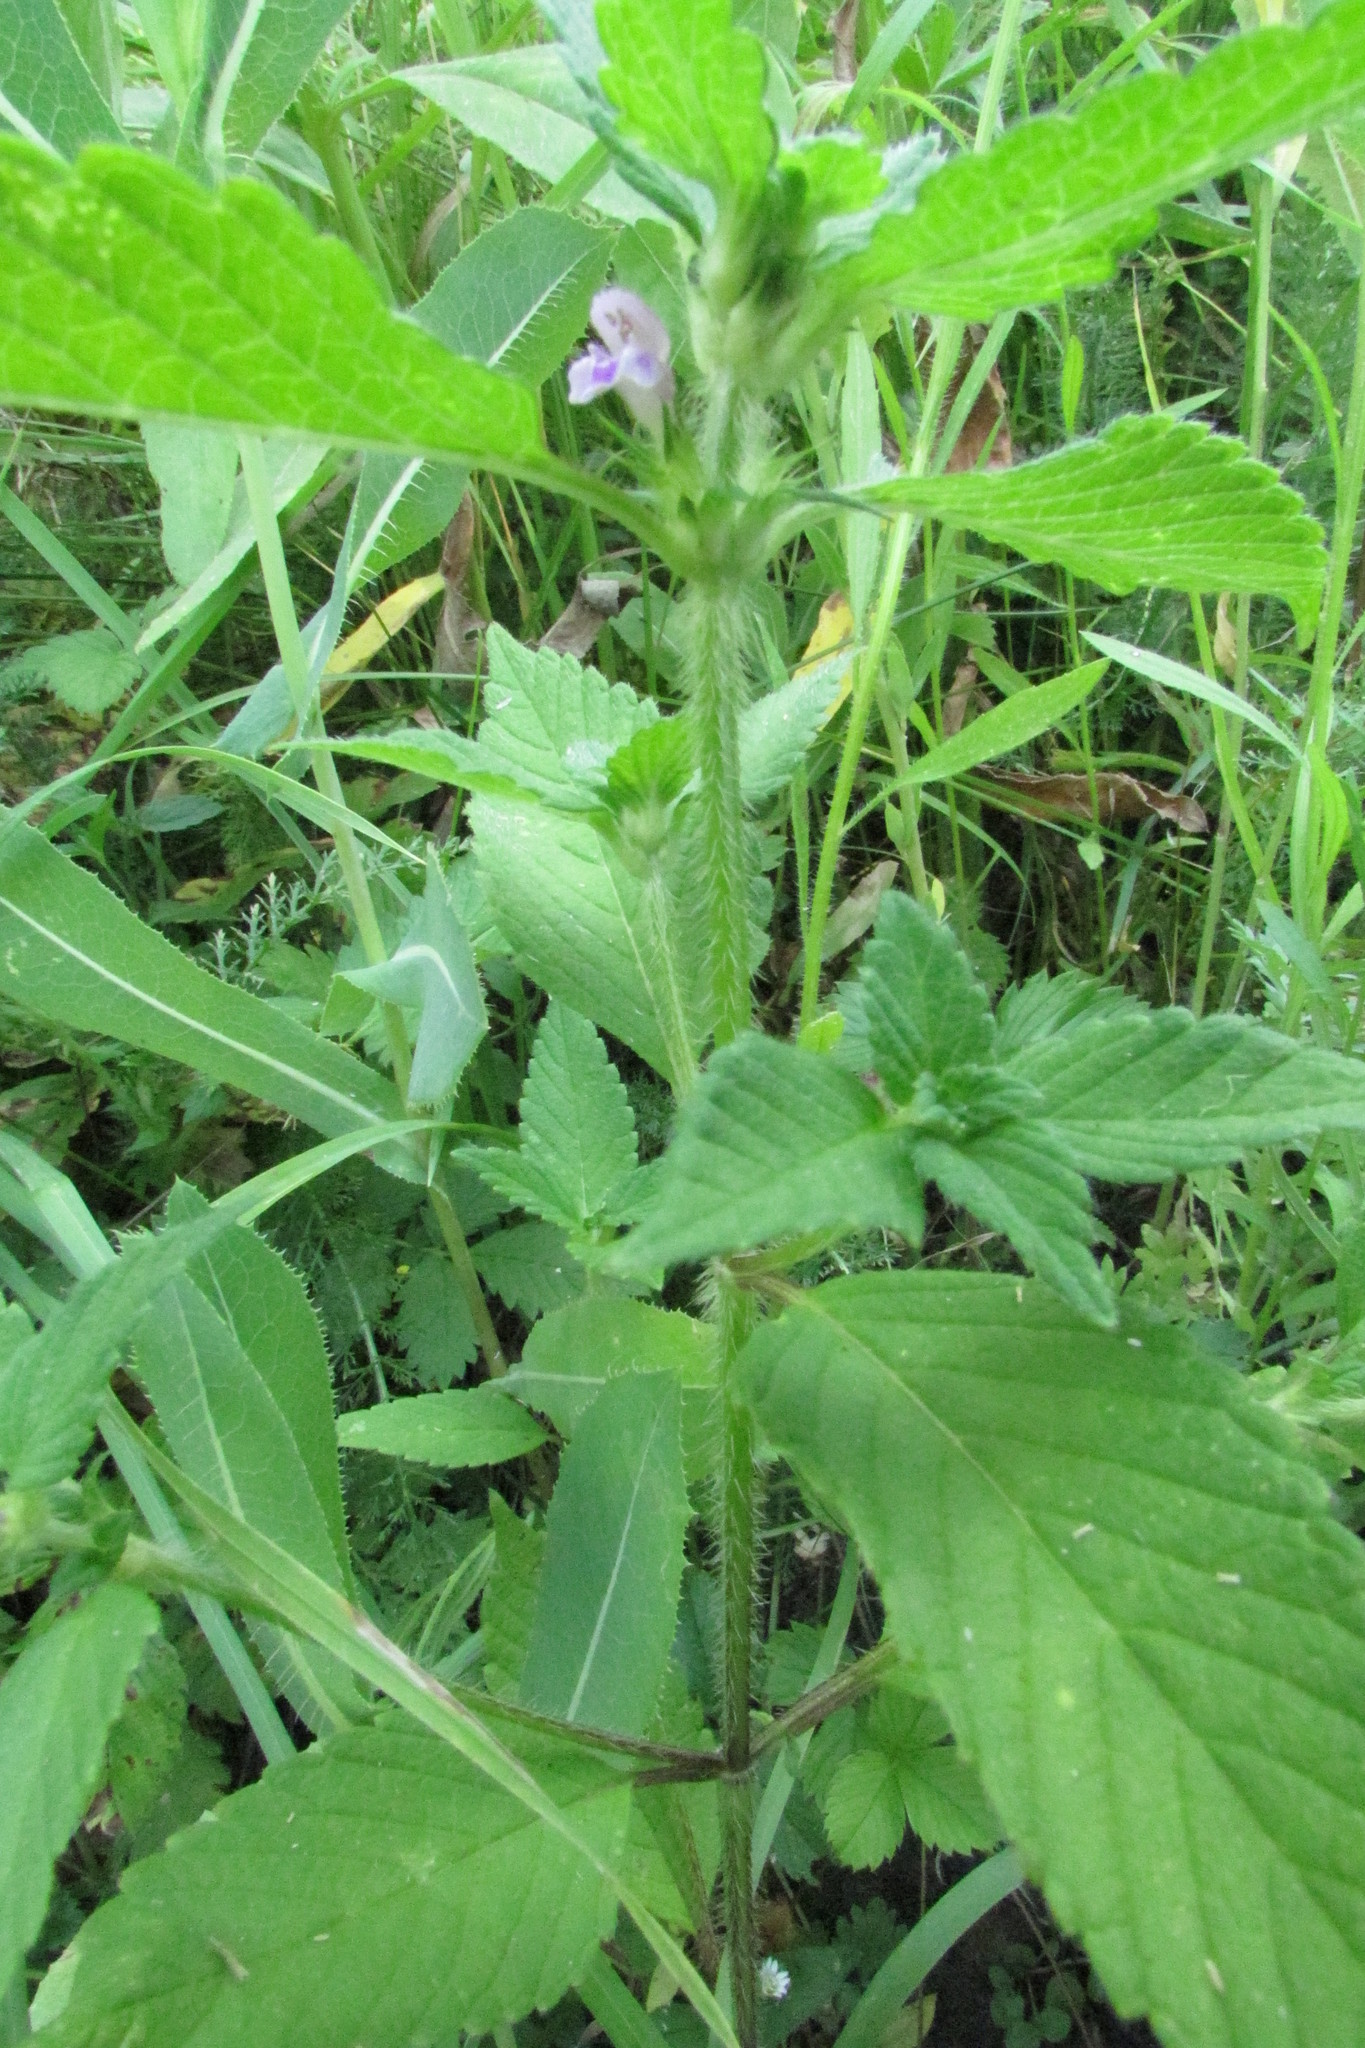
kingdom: Plantae
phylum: Tracheophyta
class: Magnoliopsida
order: Lamiales
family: Lamiaceae
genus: Galeopsis
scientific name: Galeopsis bifida
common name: Bifid hemp-nettle
